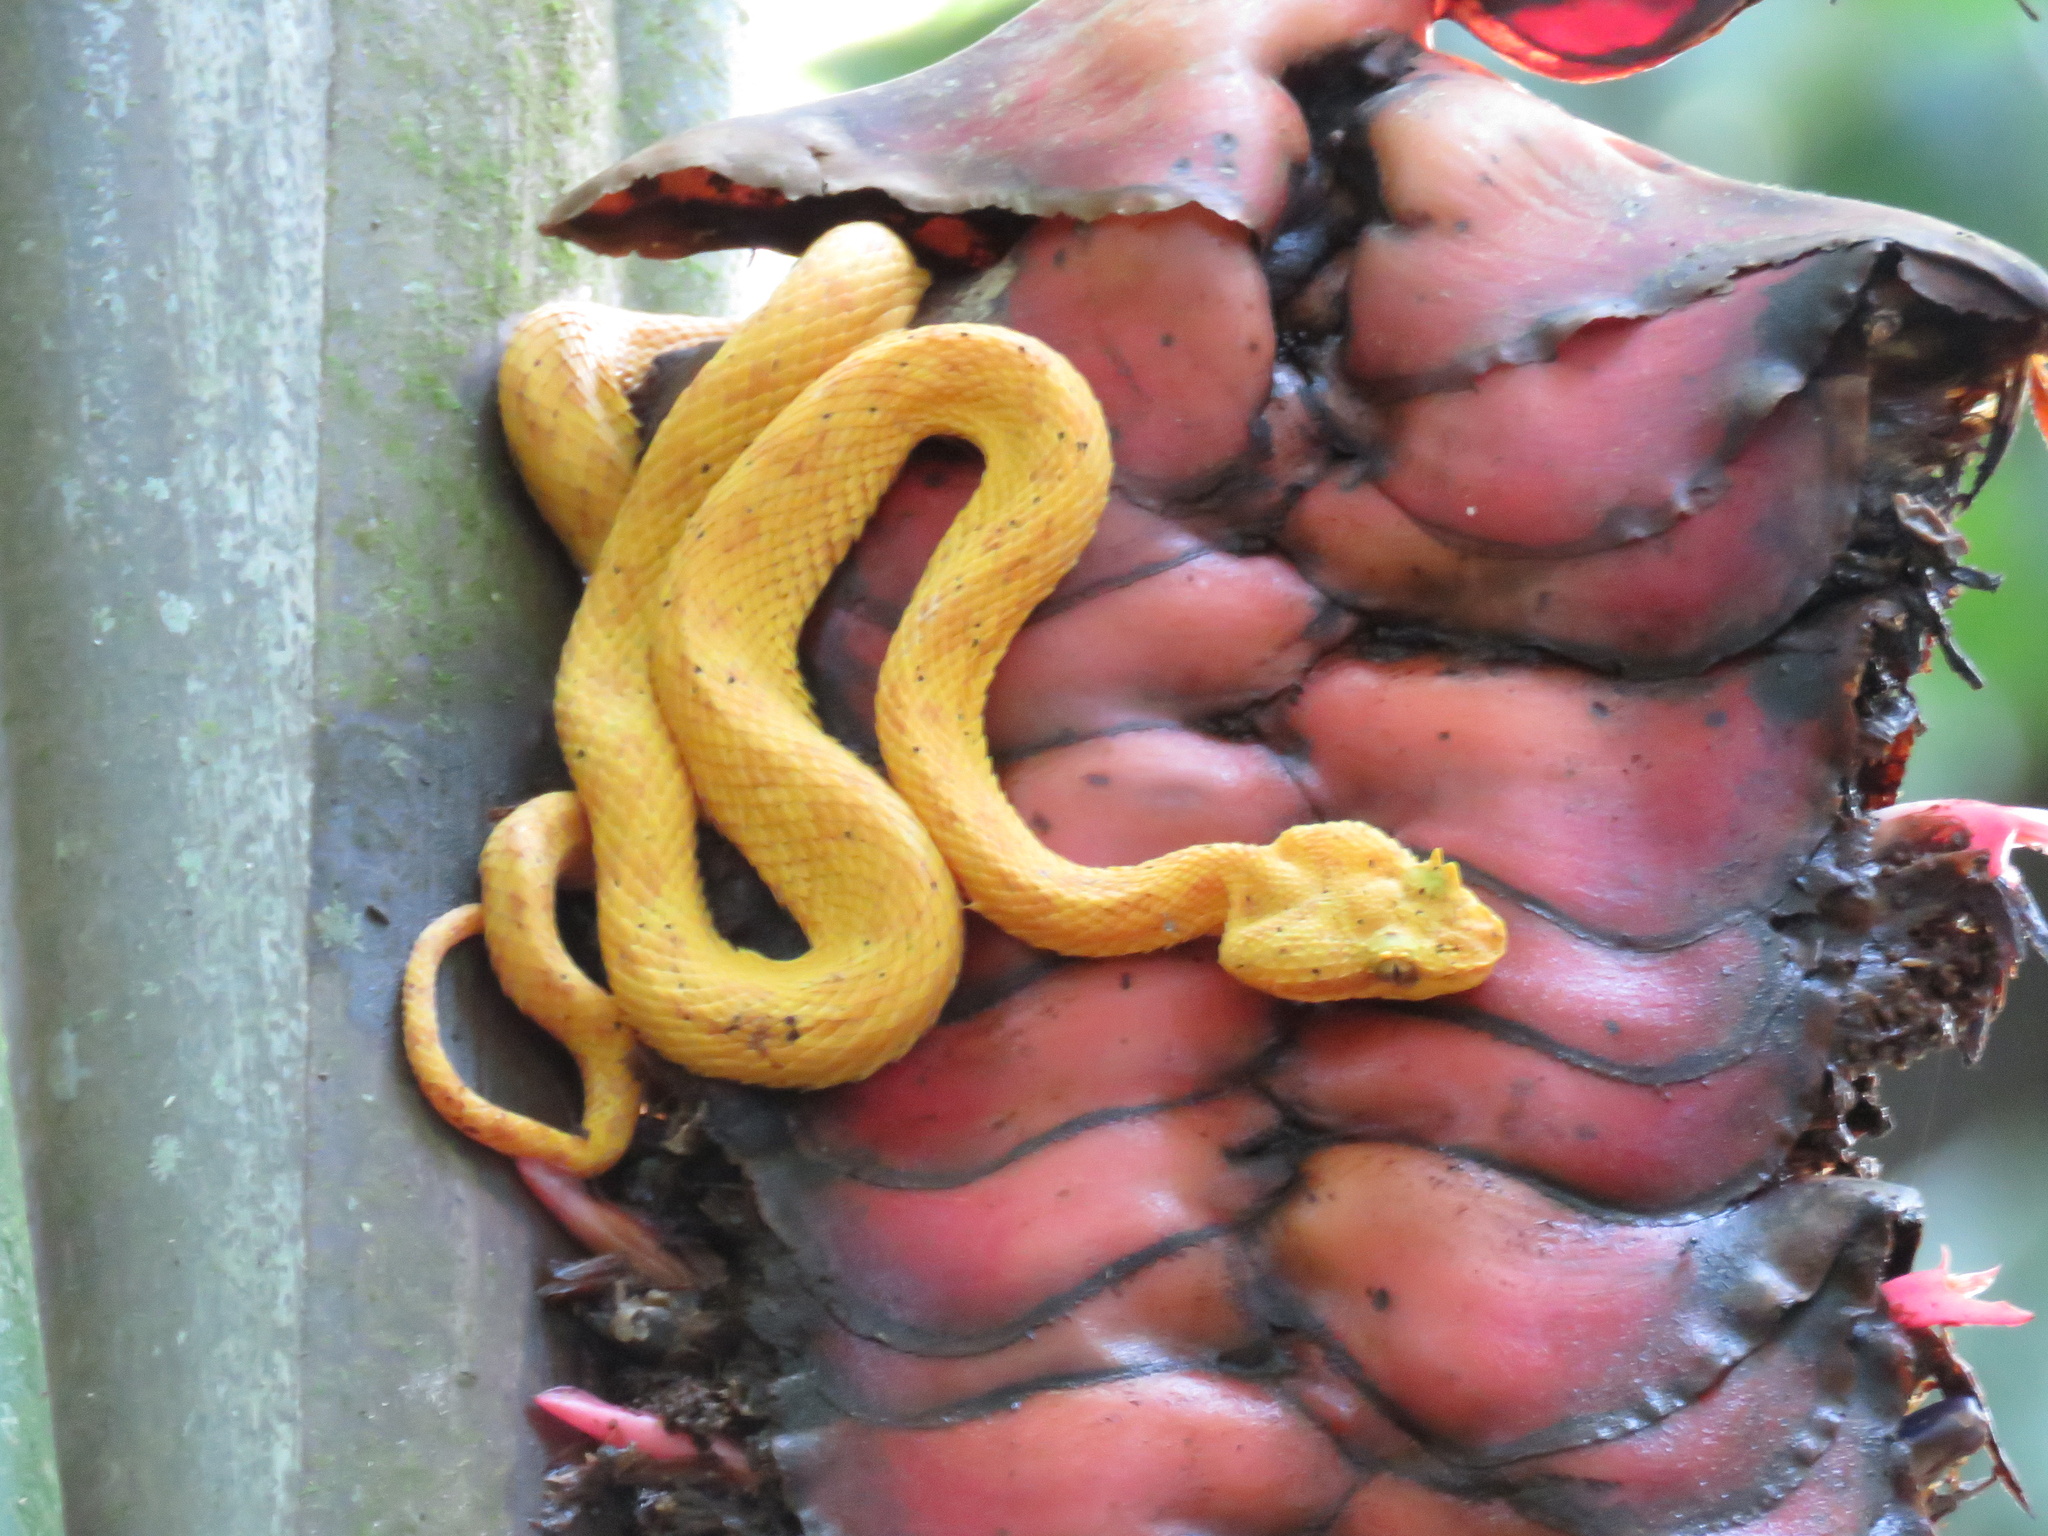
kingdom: Animalia
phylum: Chordata
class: Squamata
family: Viperidae
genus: Bothriechis
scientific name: Bothriechis schlegelii
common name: Eyelash viper
